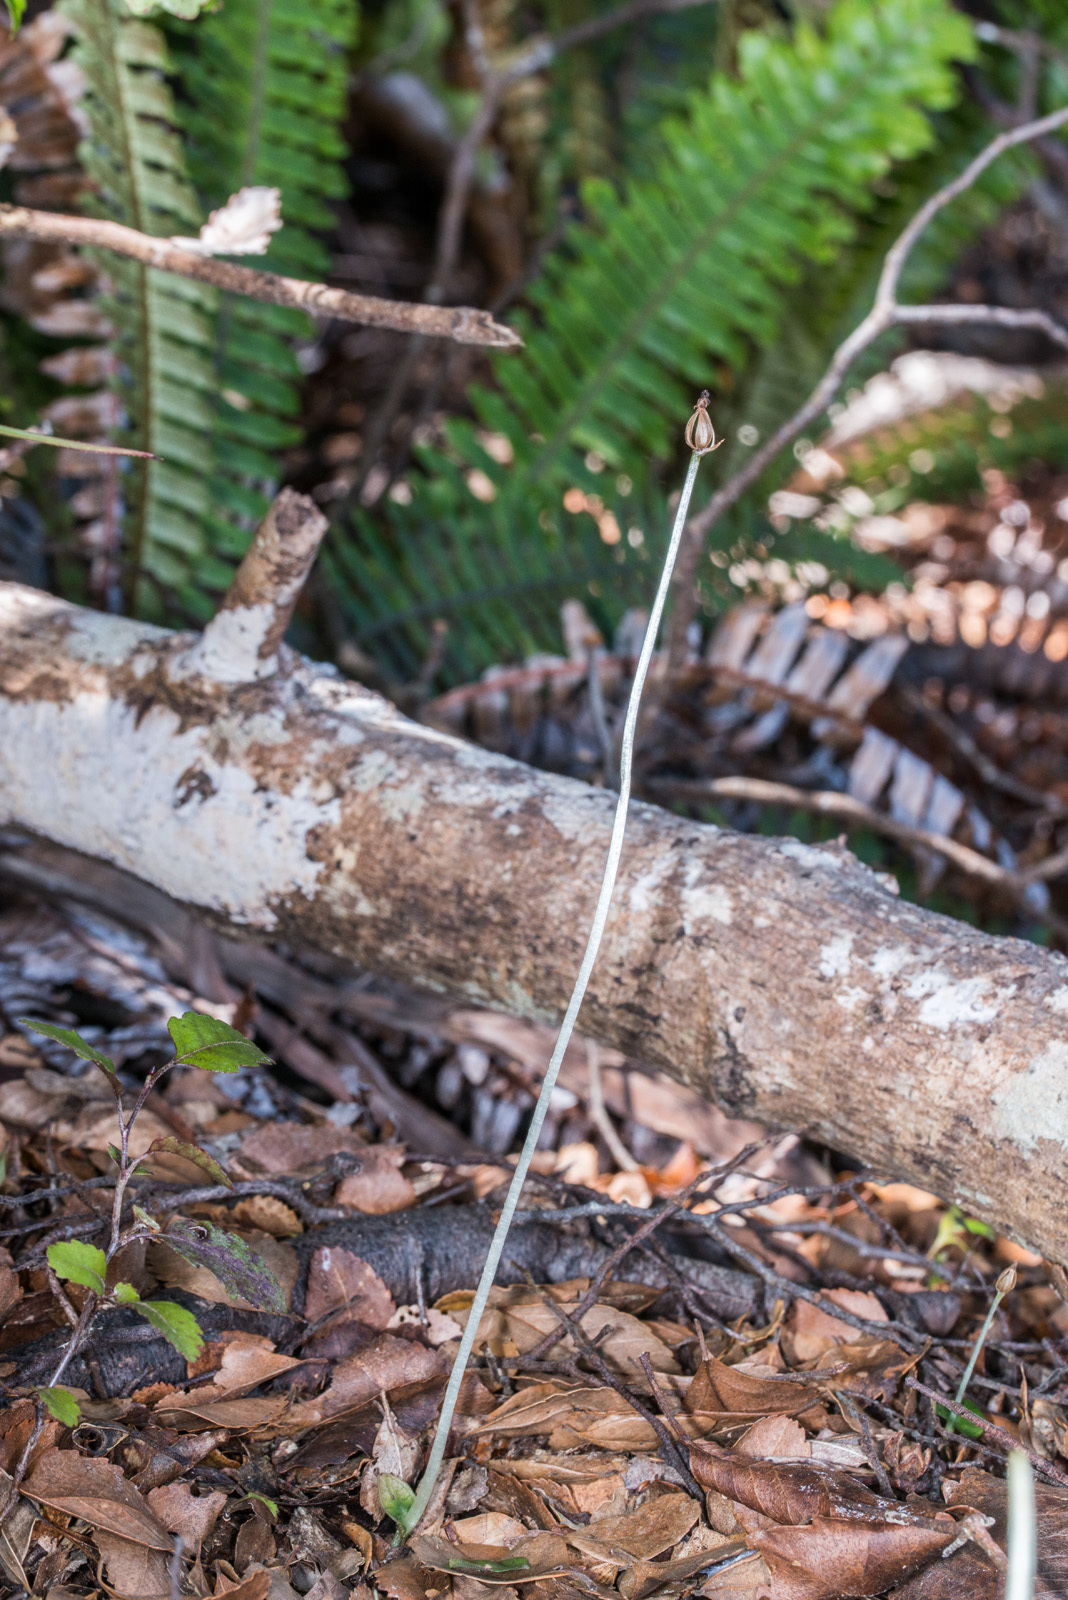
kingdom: Plantae
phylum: Tracheophyta
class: Liliopsida
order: Asparagales
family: Orchidaceae
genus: Corybas
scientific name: Corybas cheesemanii
